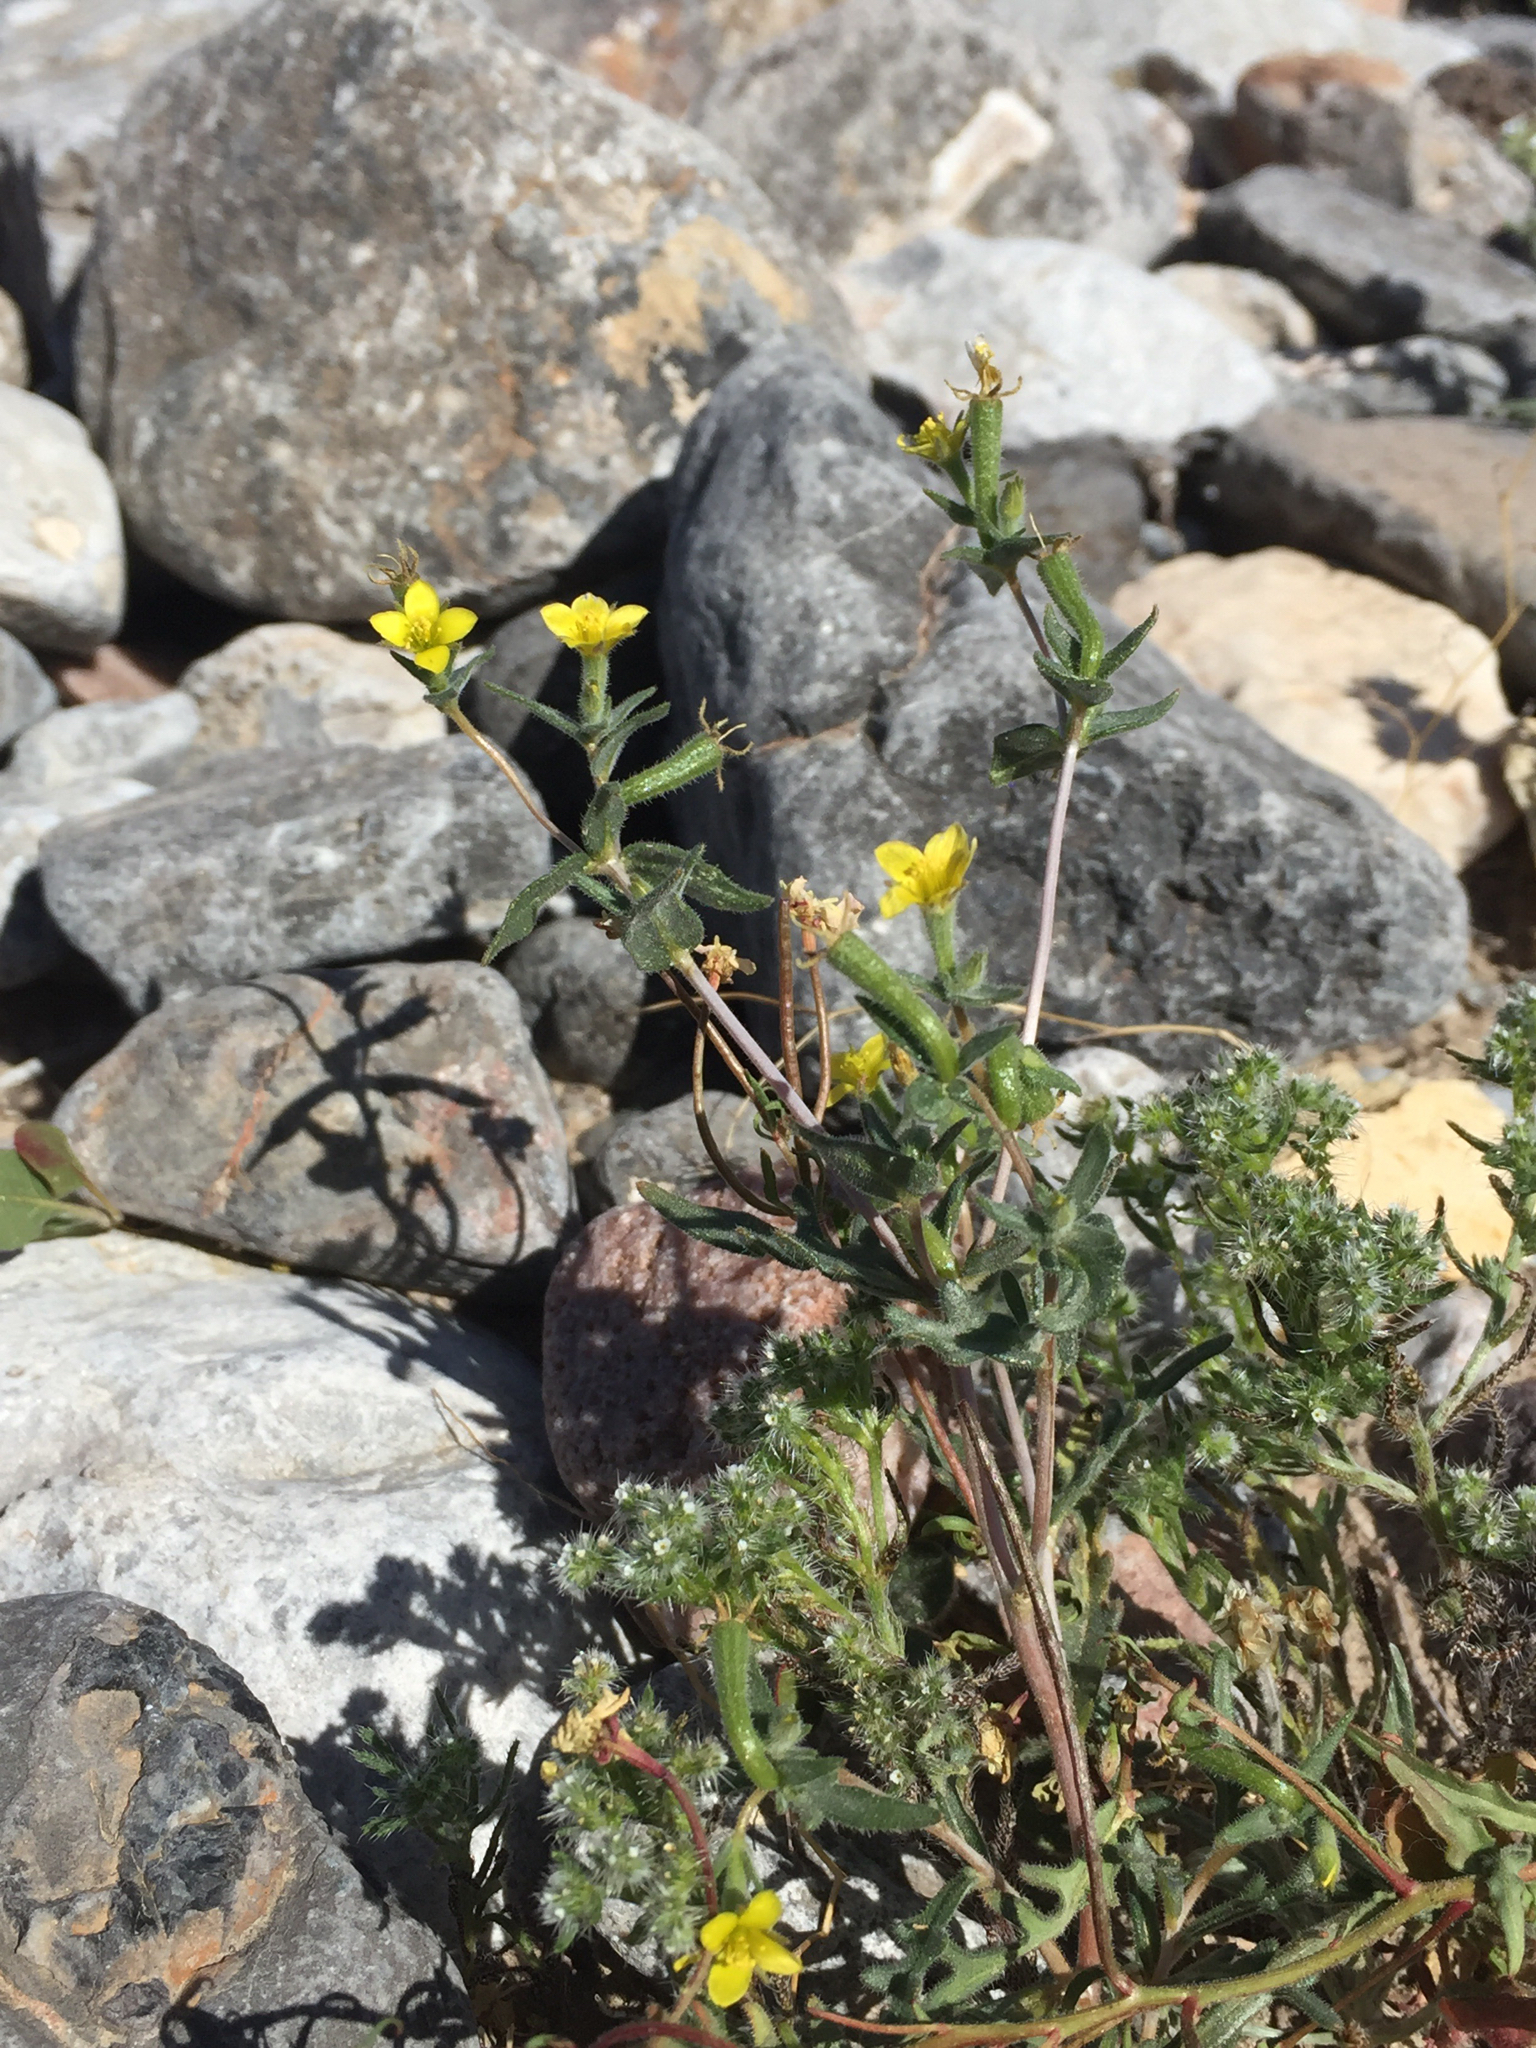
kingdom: Plantae
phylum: Tracheophyta
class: Magnoliopsida
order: Cornales
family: Loasaceae
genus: Mentzelia
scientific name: Mentzelia albicaulis
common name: White-stem blazingstar
